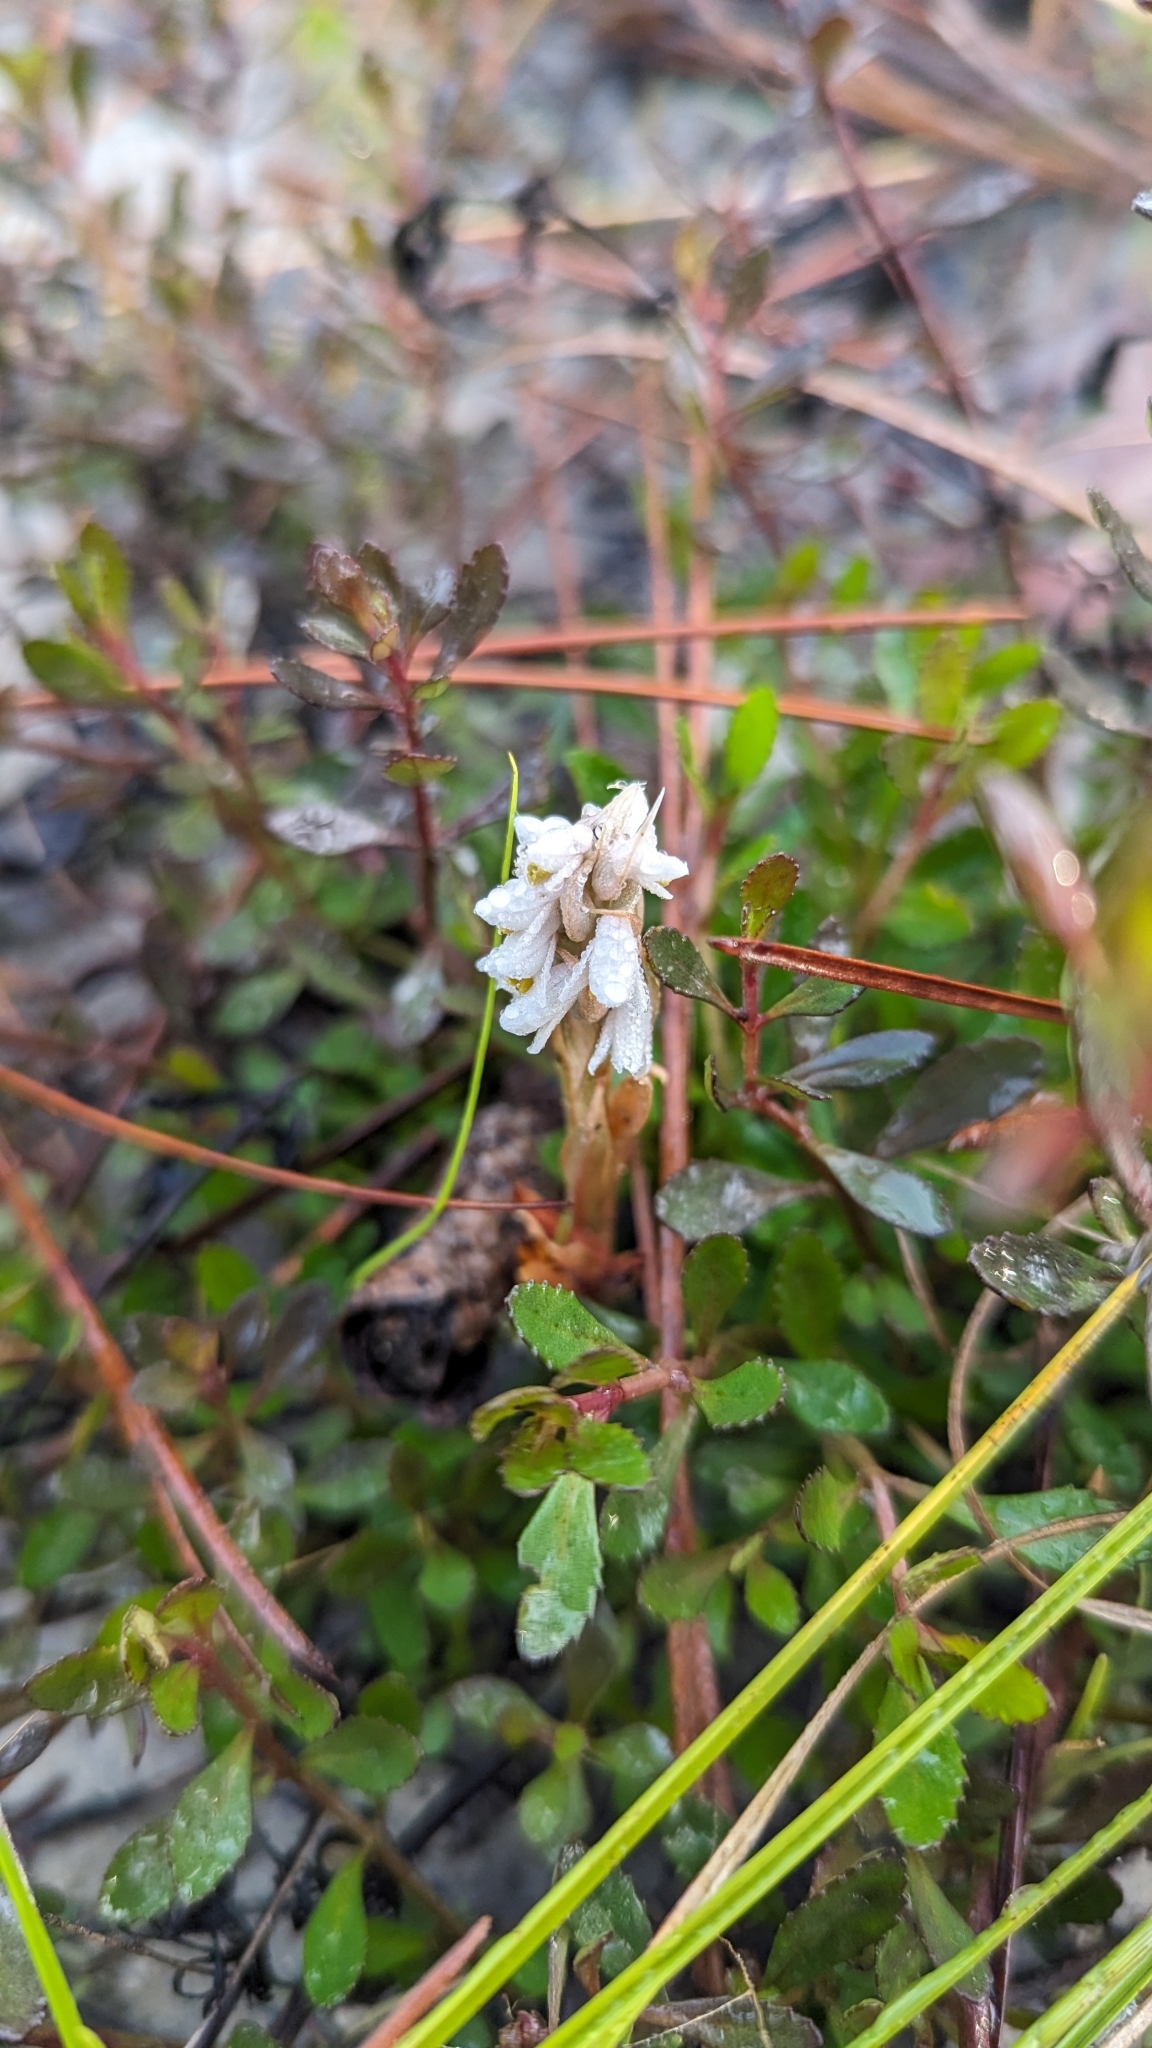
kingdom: Plantae
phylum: Tracheophyta
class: Liliopsida
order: Asparagales
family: Orchidaceae
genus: Zeuxine
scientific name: Zeuxine strateumatica
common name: Soldier's orchid
